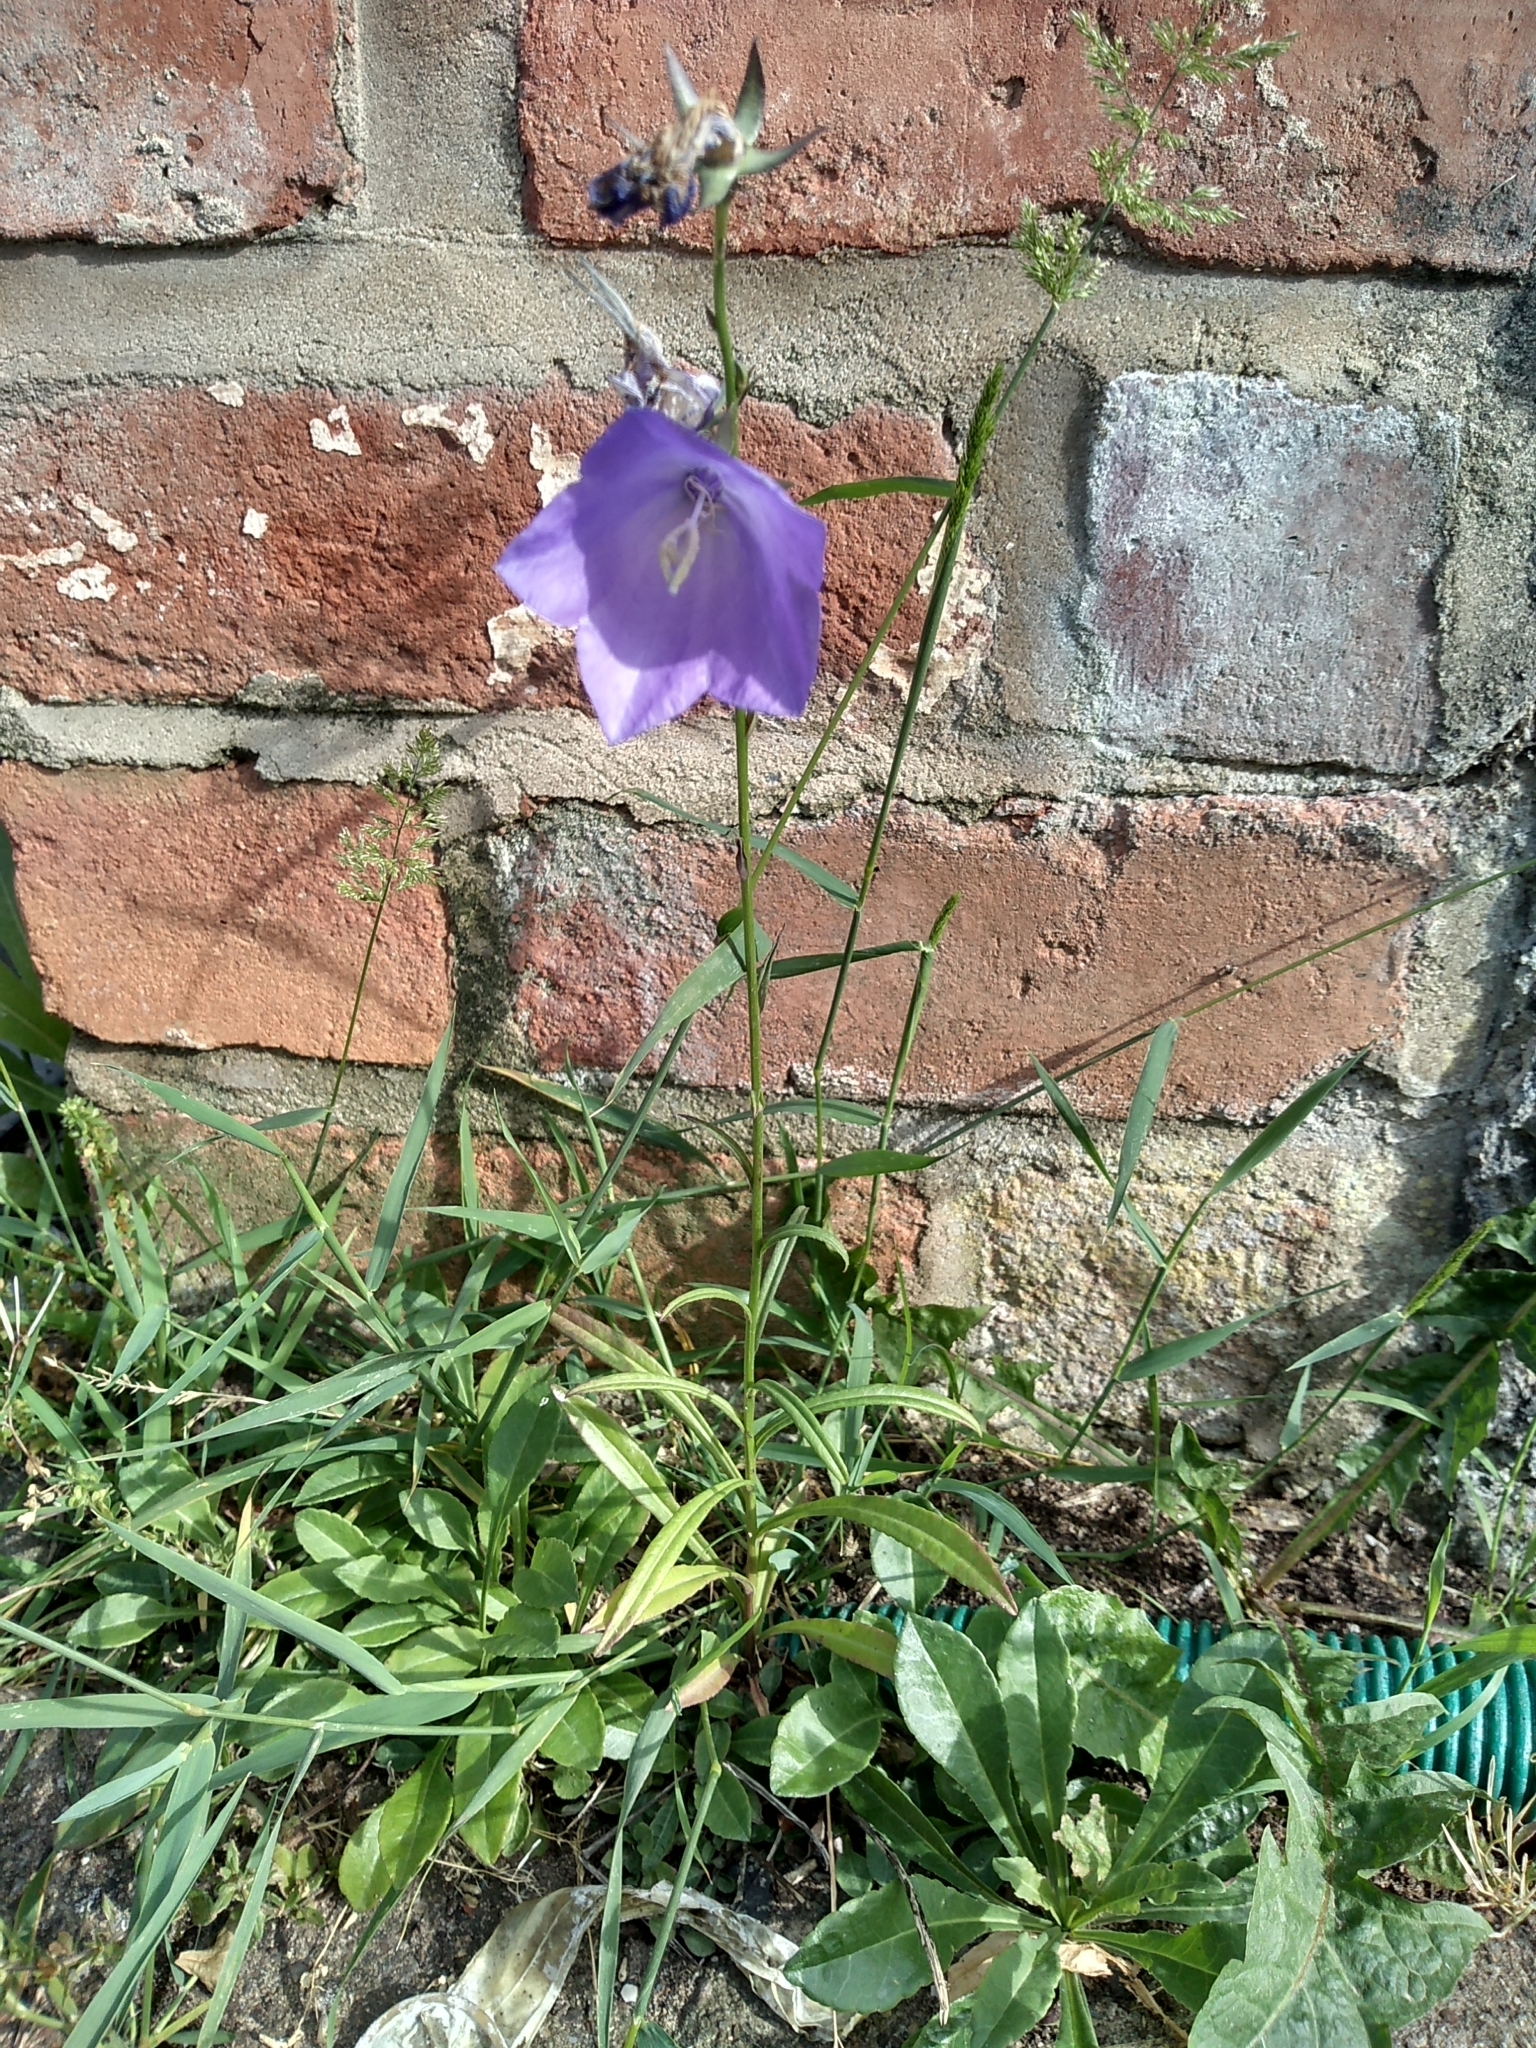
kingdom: Plantae
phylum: Tracheophyta
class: Magnoliopsida
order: Asterales
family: Campanulaceae
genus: Campanula
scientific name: Campanula persicifolia
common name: Peach-leaved bellflower
